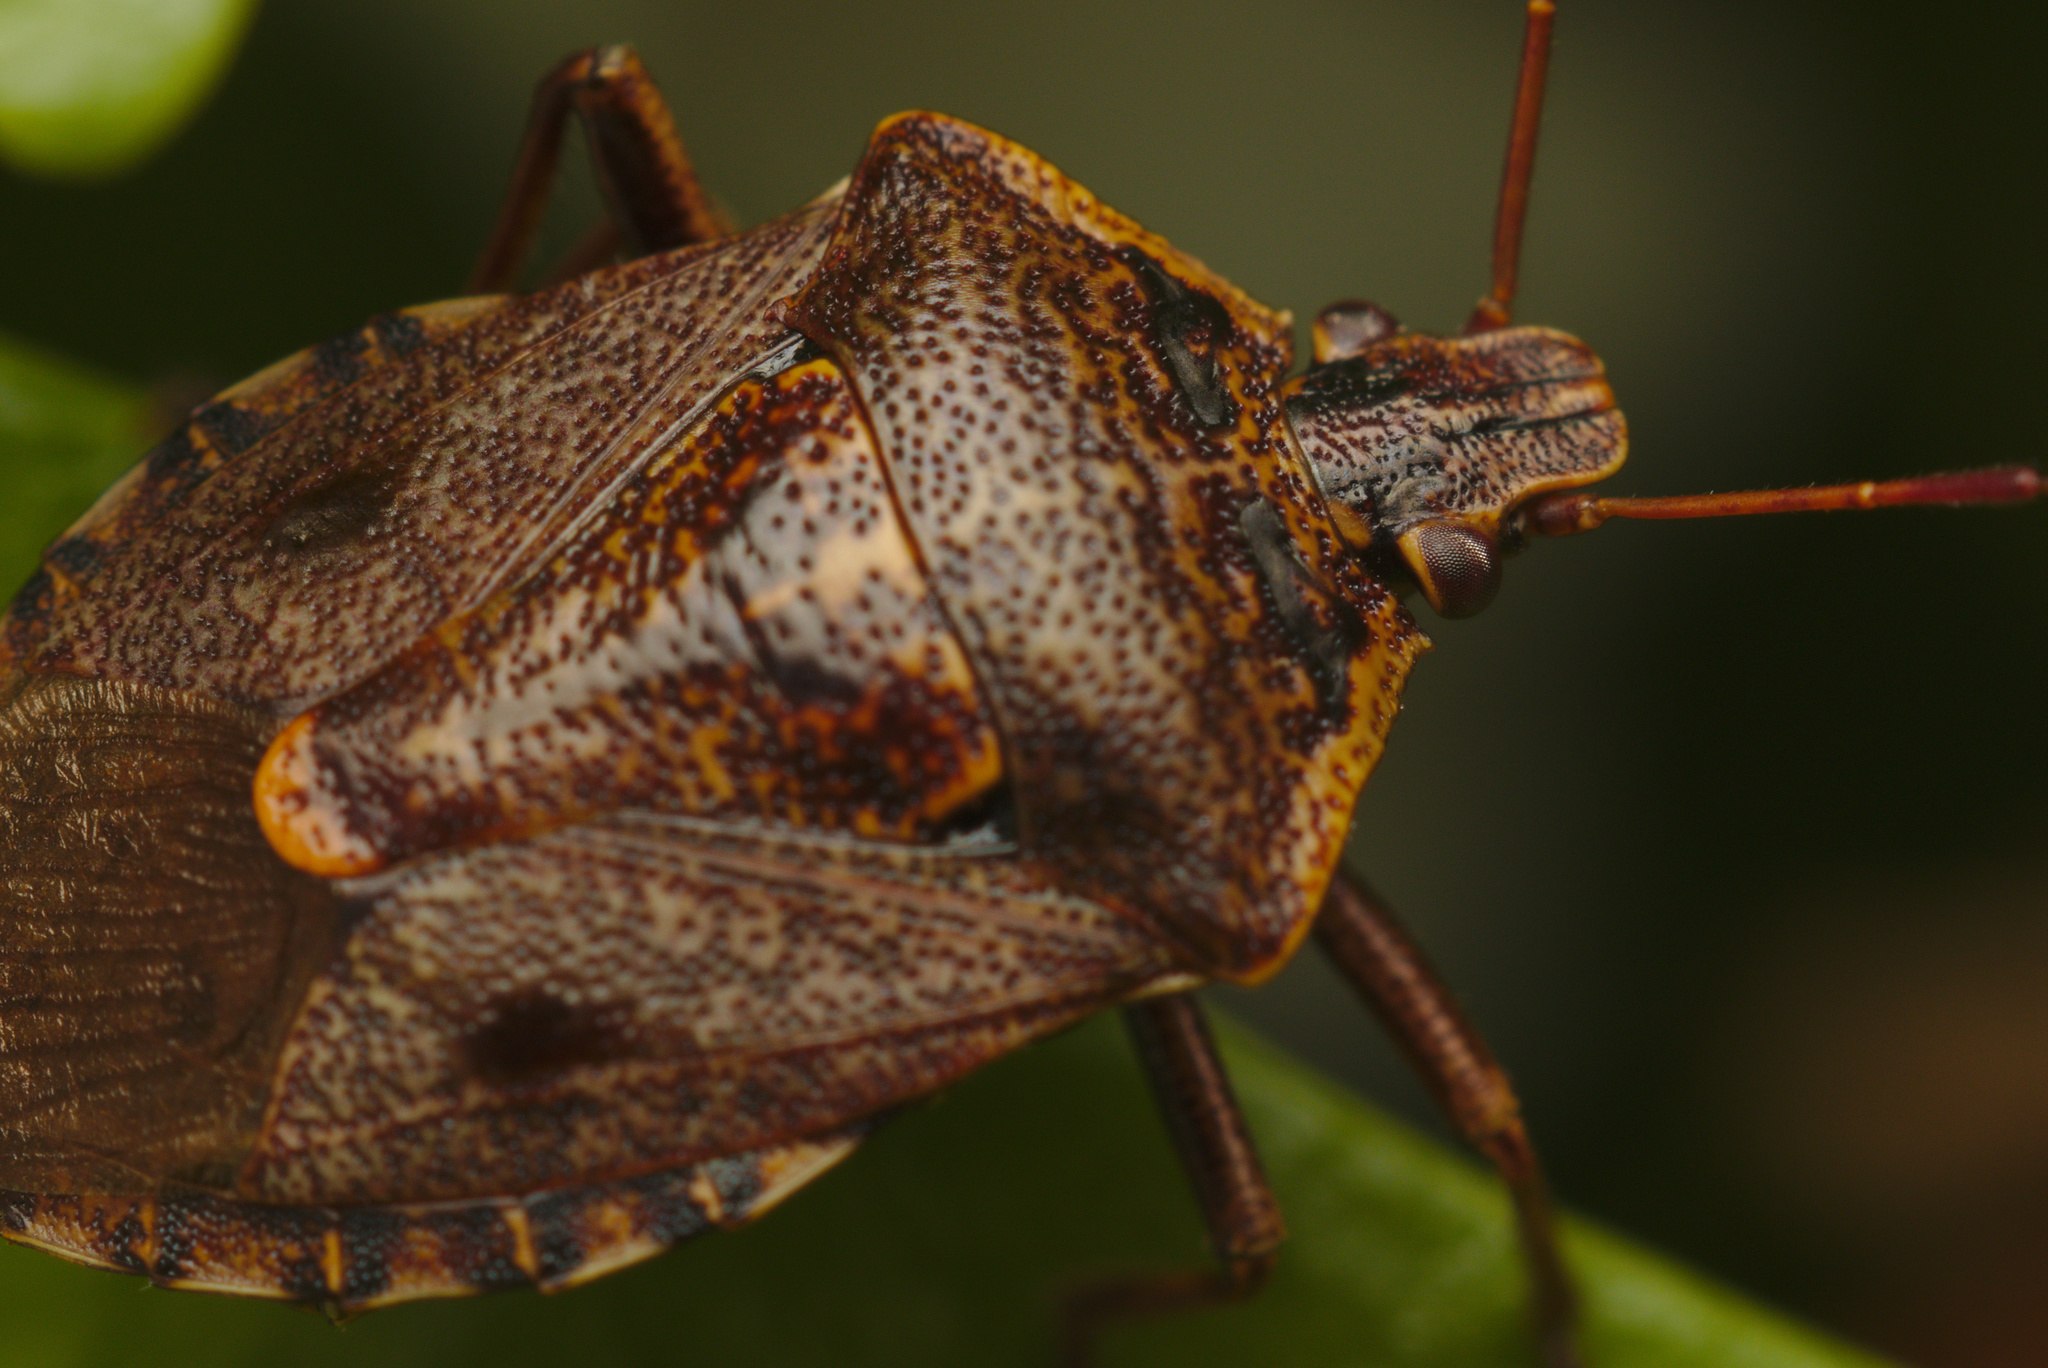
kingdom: Animalia
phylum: Arthropoda
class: Insecta
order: Hemiptera
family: Pentatomidae
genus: Cermatulus
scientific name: Cermatulus nasalis
